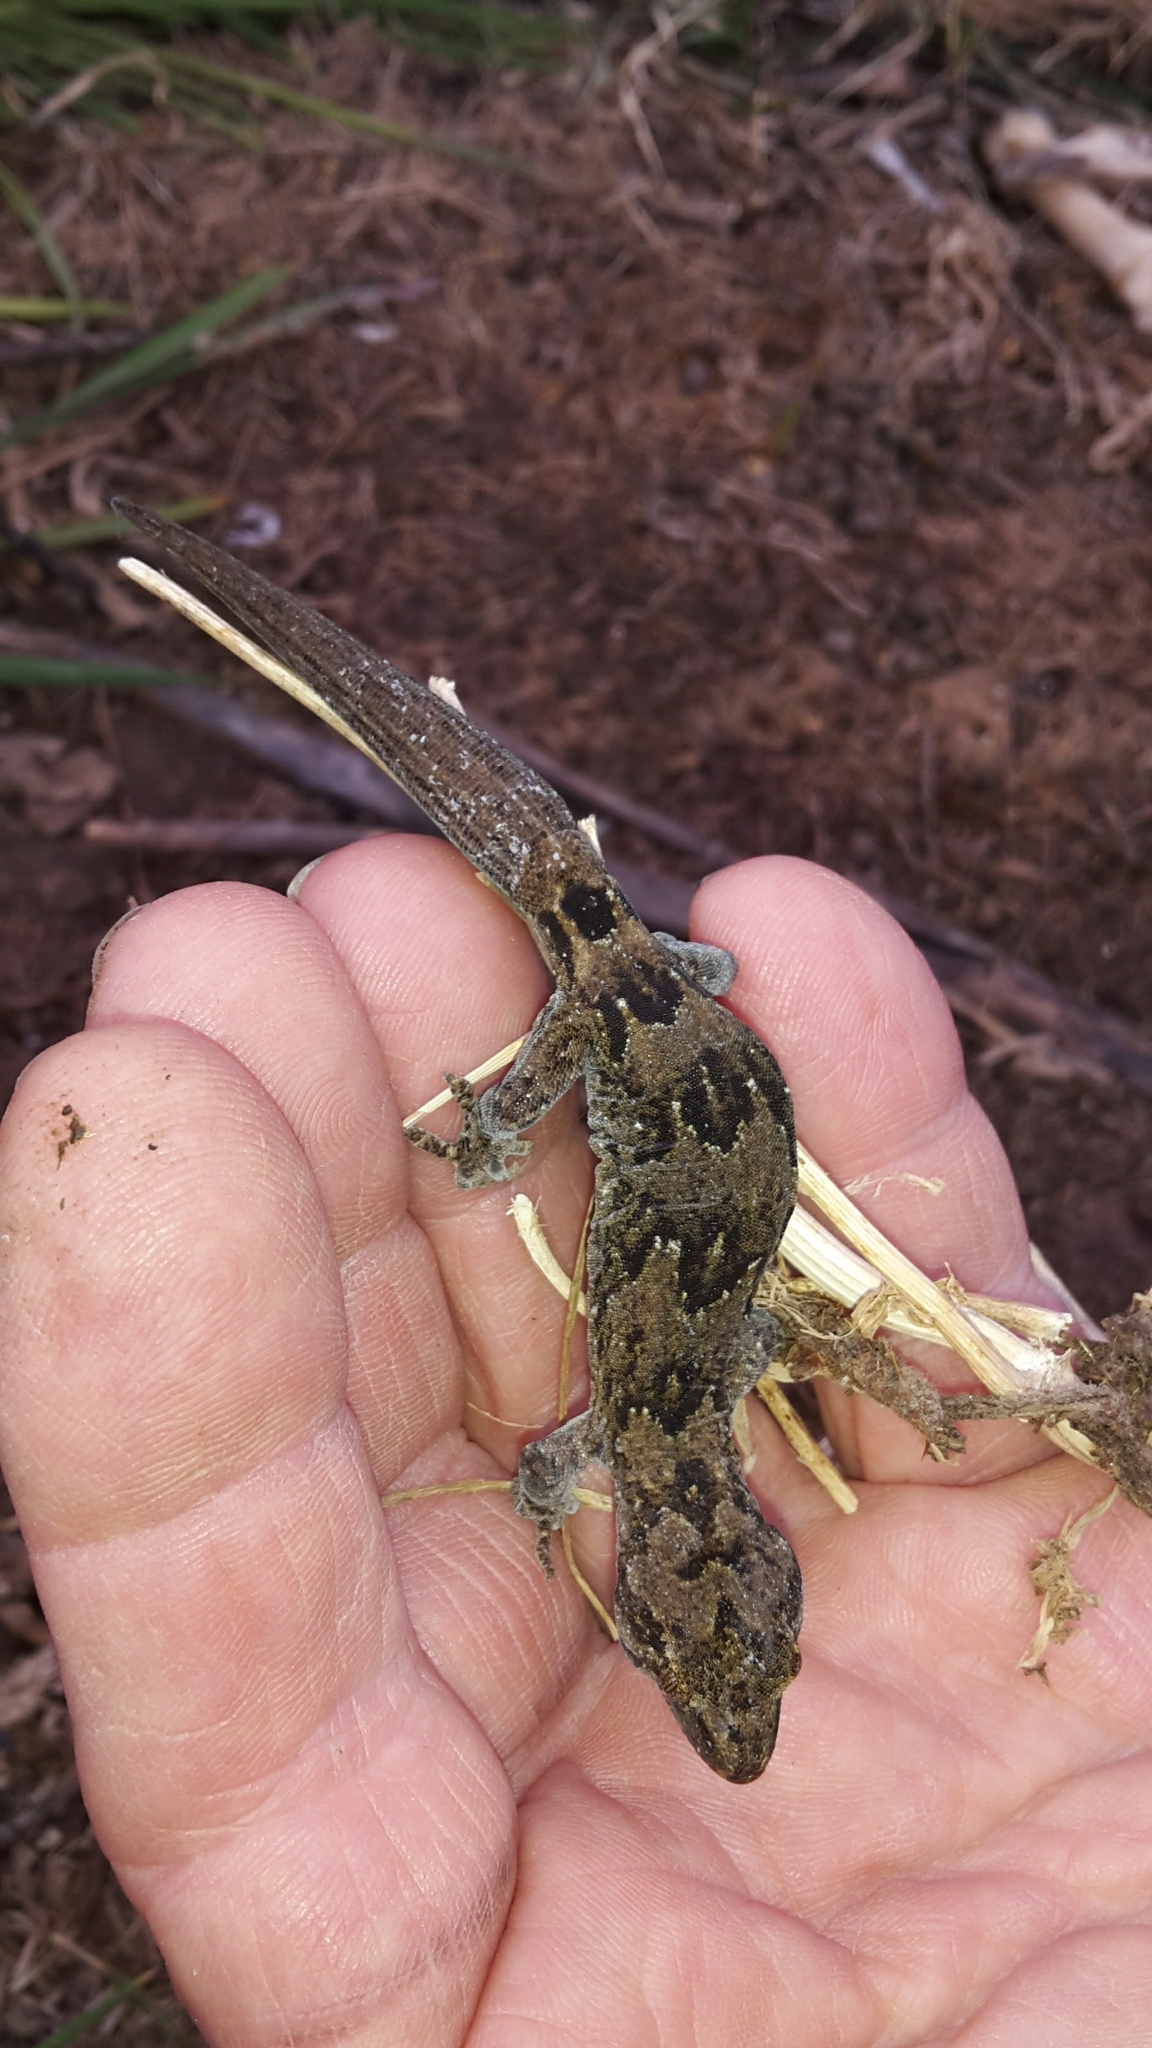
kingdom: Animalia
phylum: Chordata
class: Squamata
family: Diplodactylidae
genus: Woodworthia
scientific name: Woodworthia
